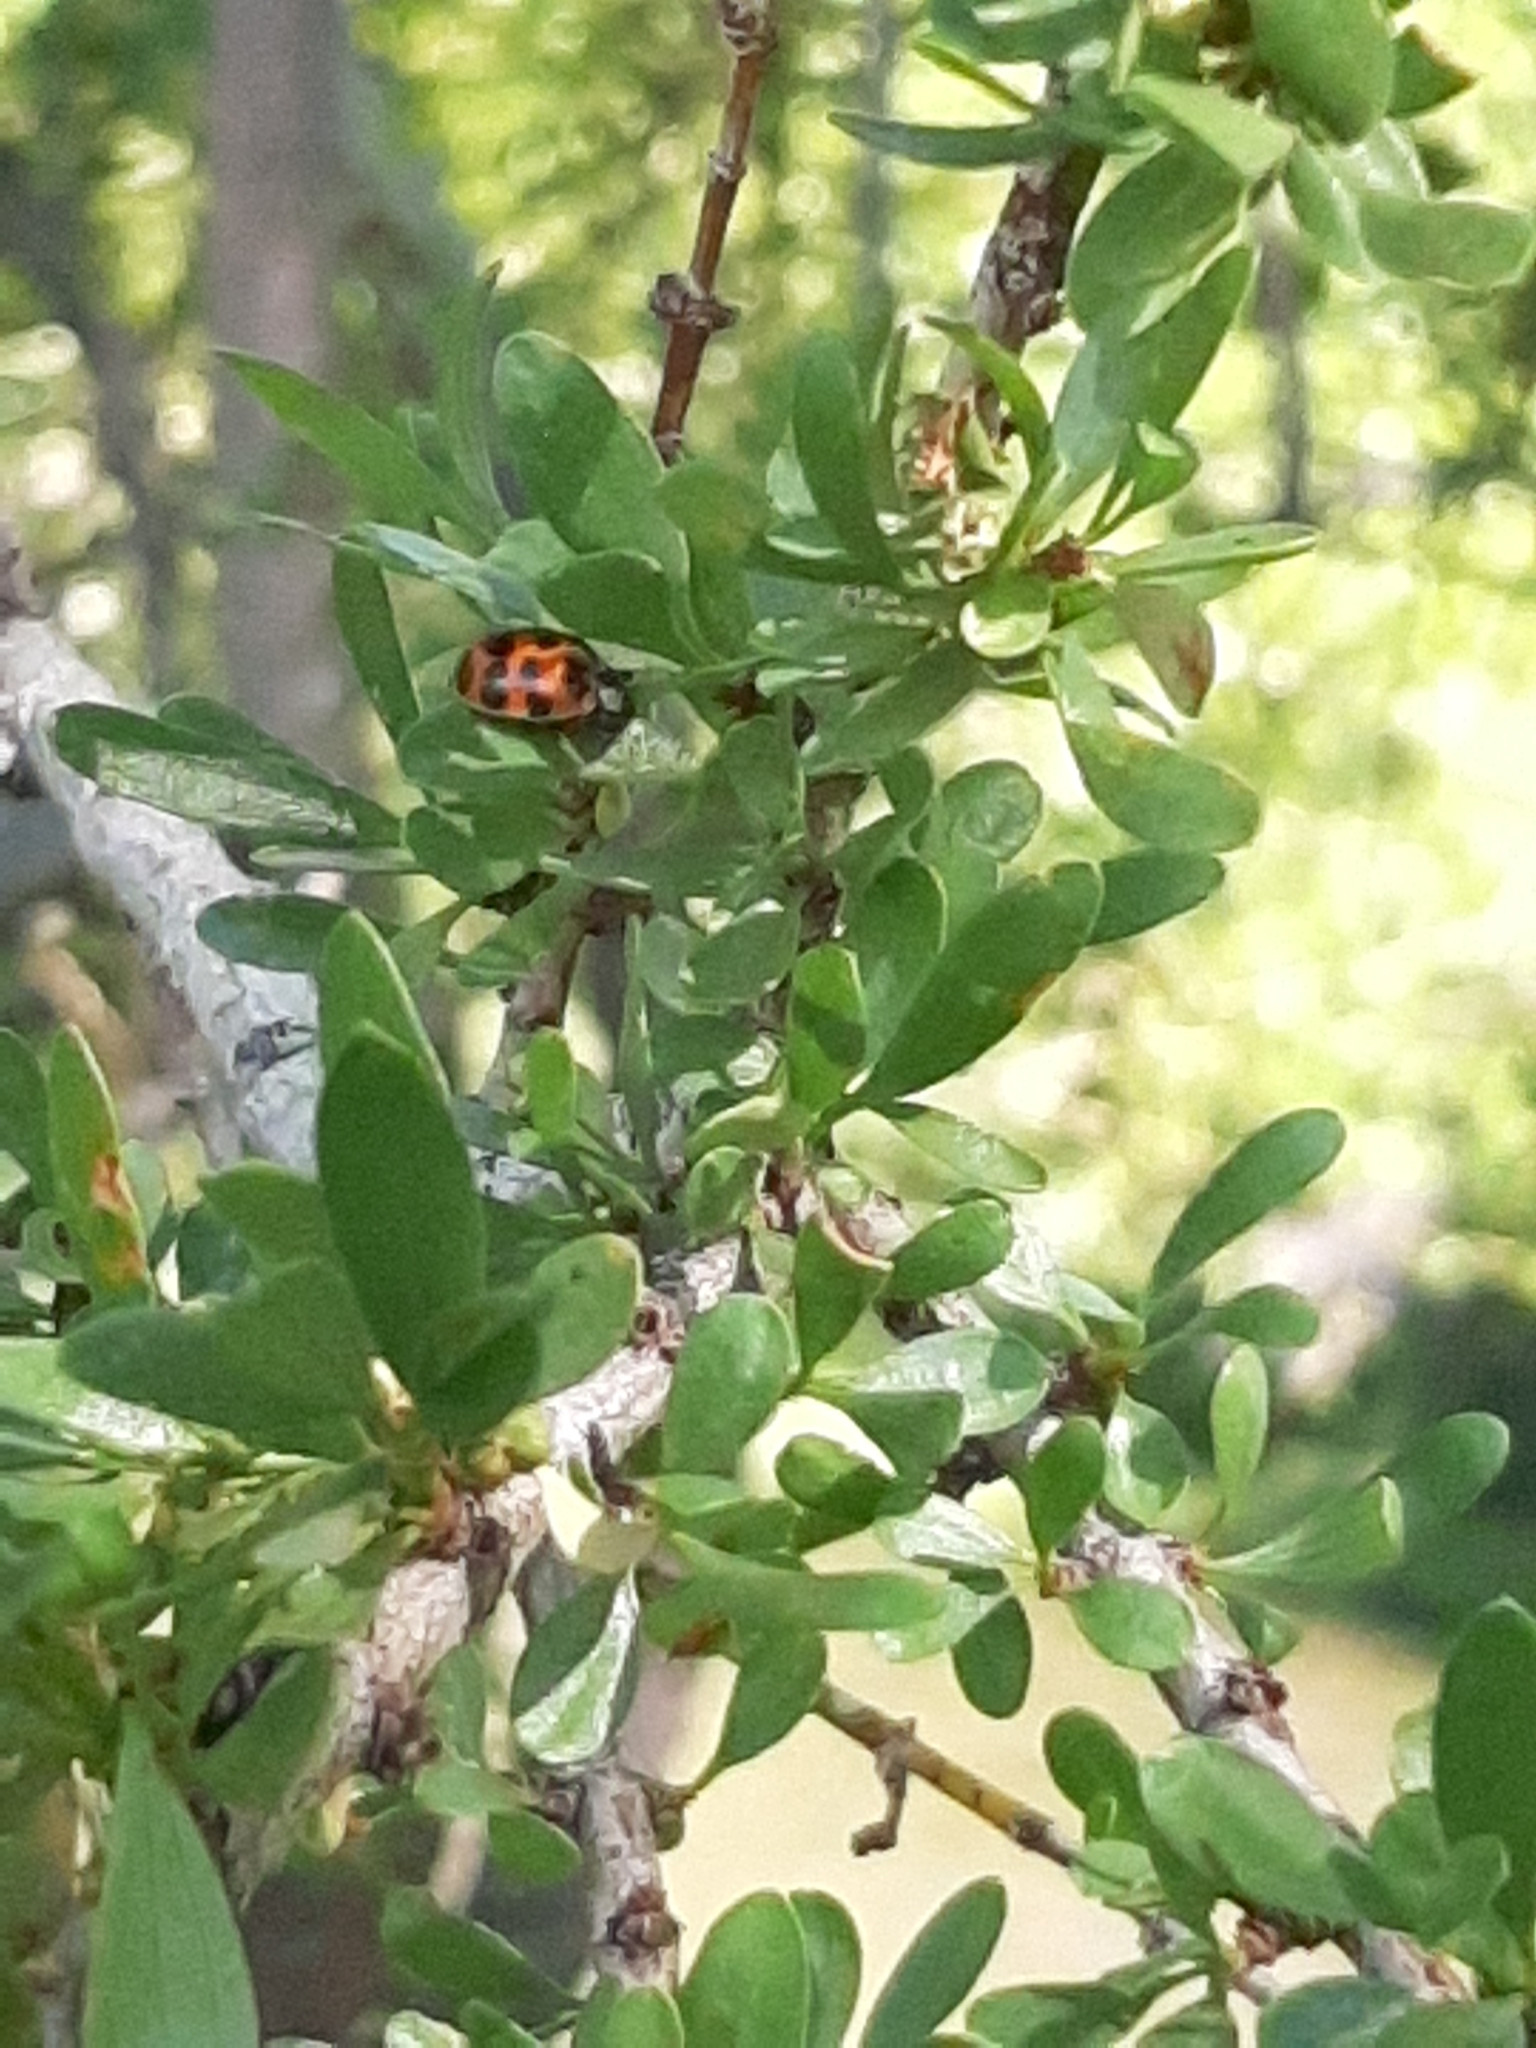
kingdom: Animalia
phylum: Arthropoda
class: Insecta
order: Coleoptera
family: Coccinellidae
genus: Harmonia
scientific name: Harmonia axyridis
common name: Harlequin ladybird
